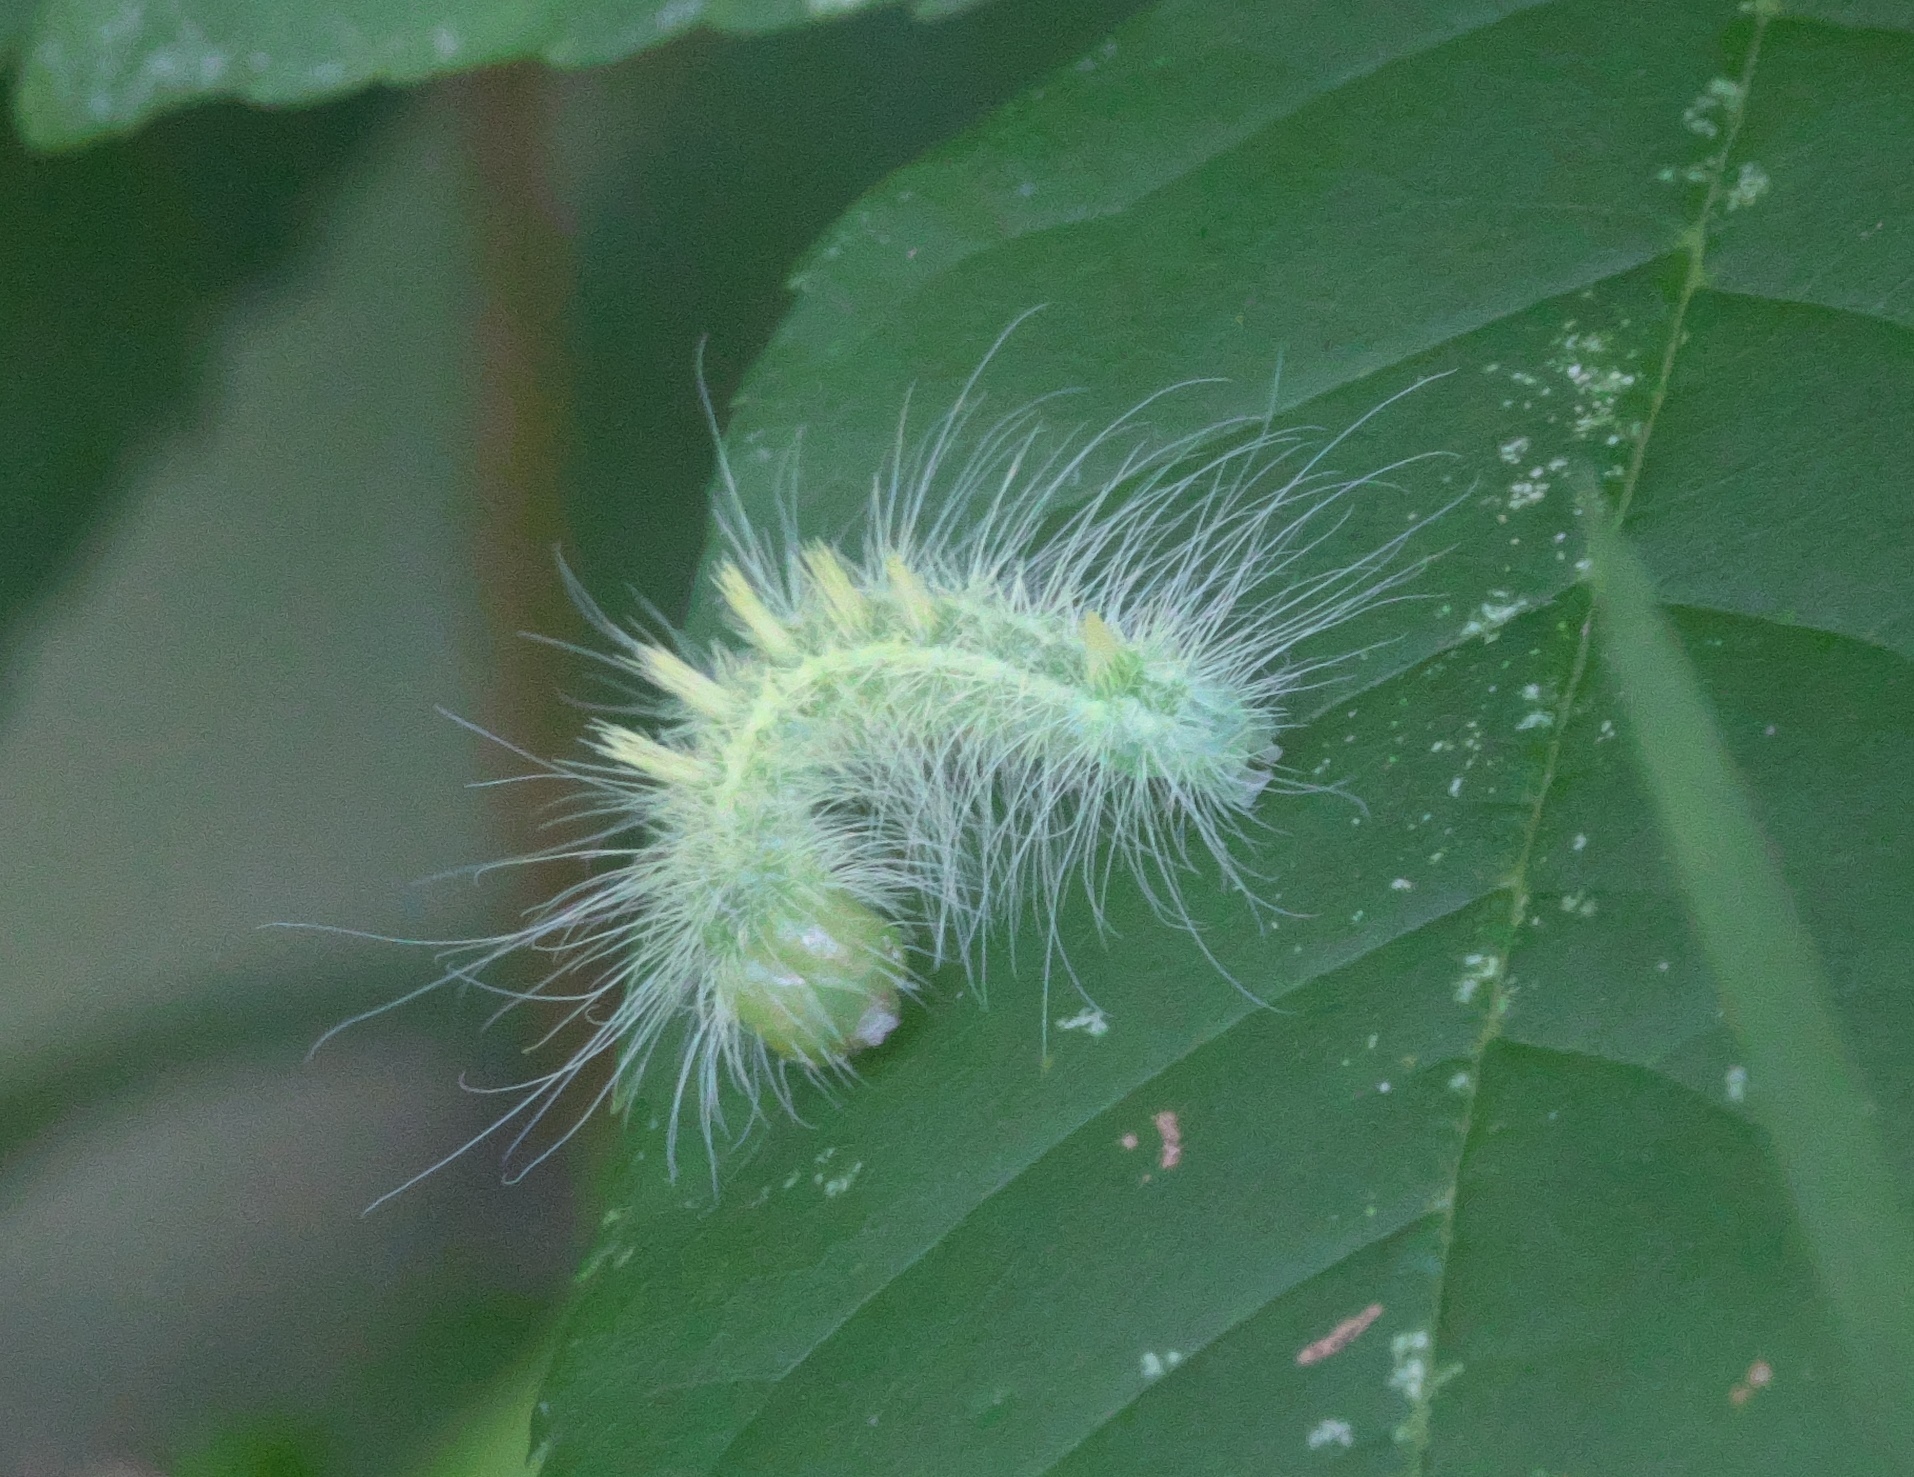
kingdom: Animalia
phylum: Arthropoda
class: Insecta
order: Lepidoptera
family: Noctuidae
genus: Acronicta
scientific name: Acronicta rubricoma
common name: Hackberry dagger
